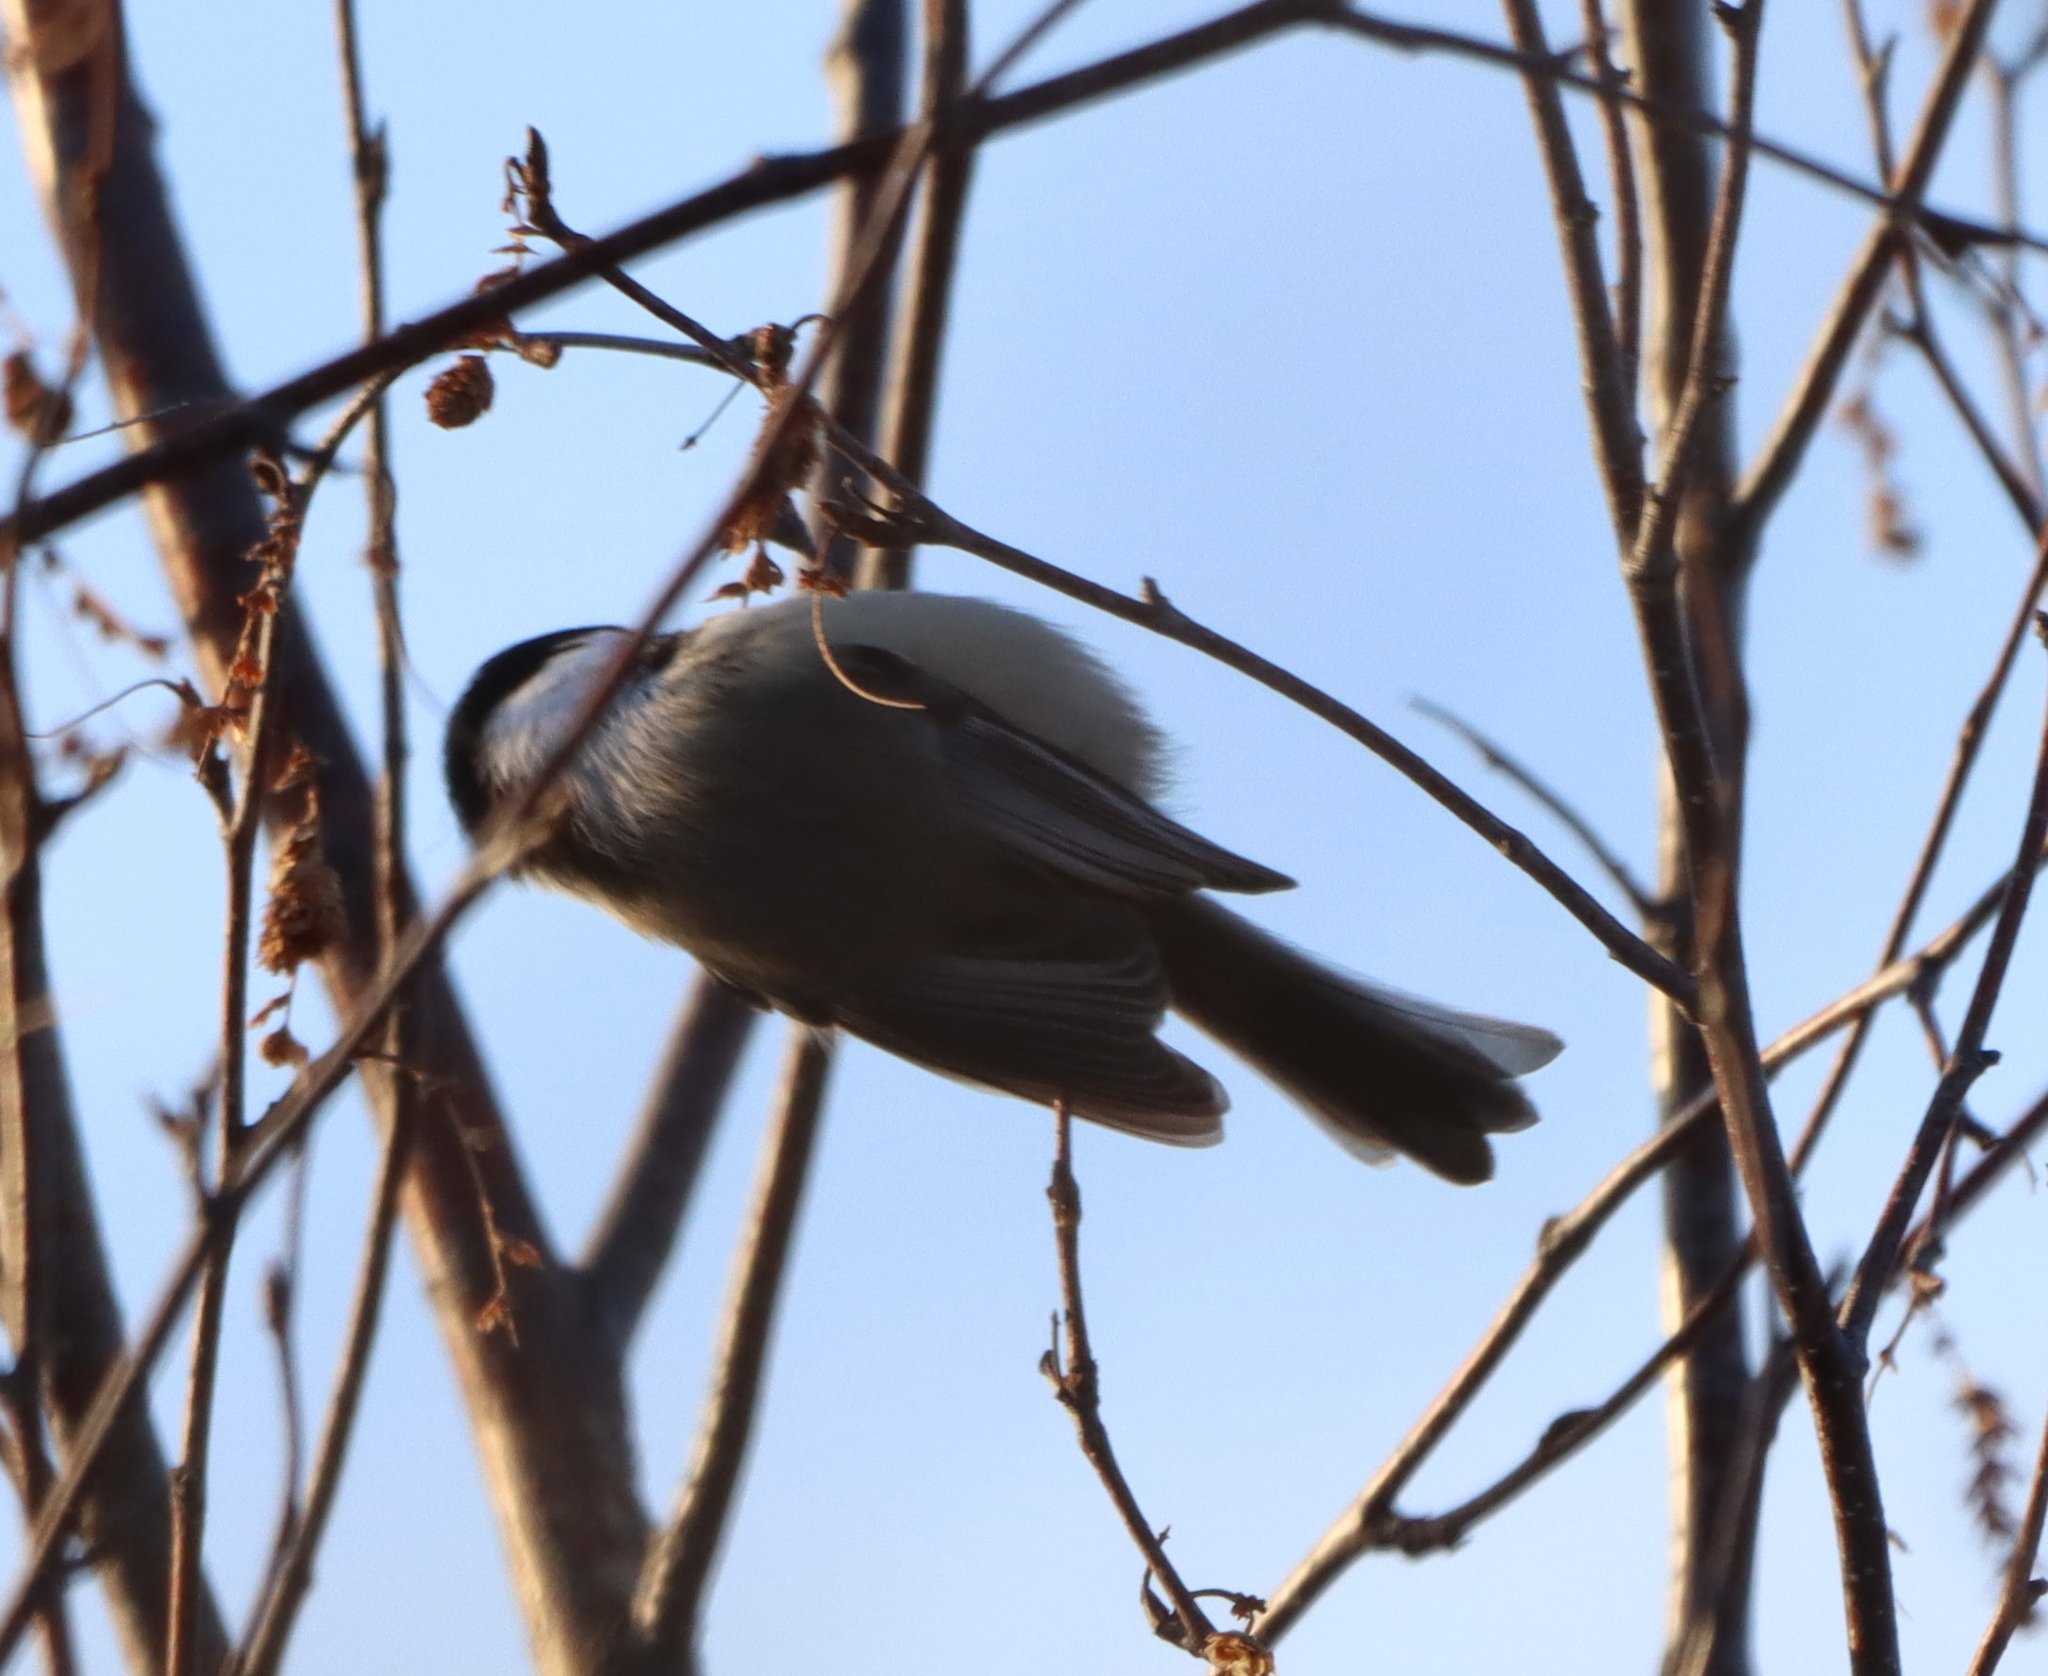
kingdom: Animalia
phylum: Chordata
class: Aves
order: Passeriformes
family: Paridae
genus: Poecile
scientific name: Poecile atricapillus
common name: Black-capped chickadee
